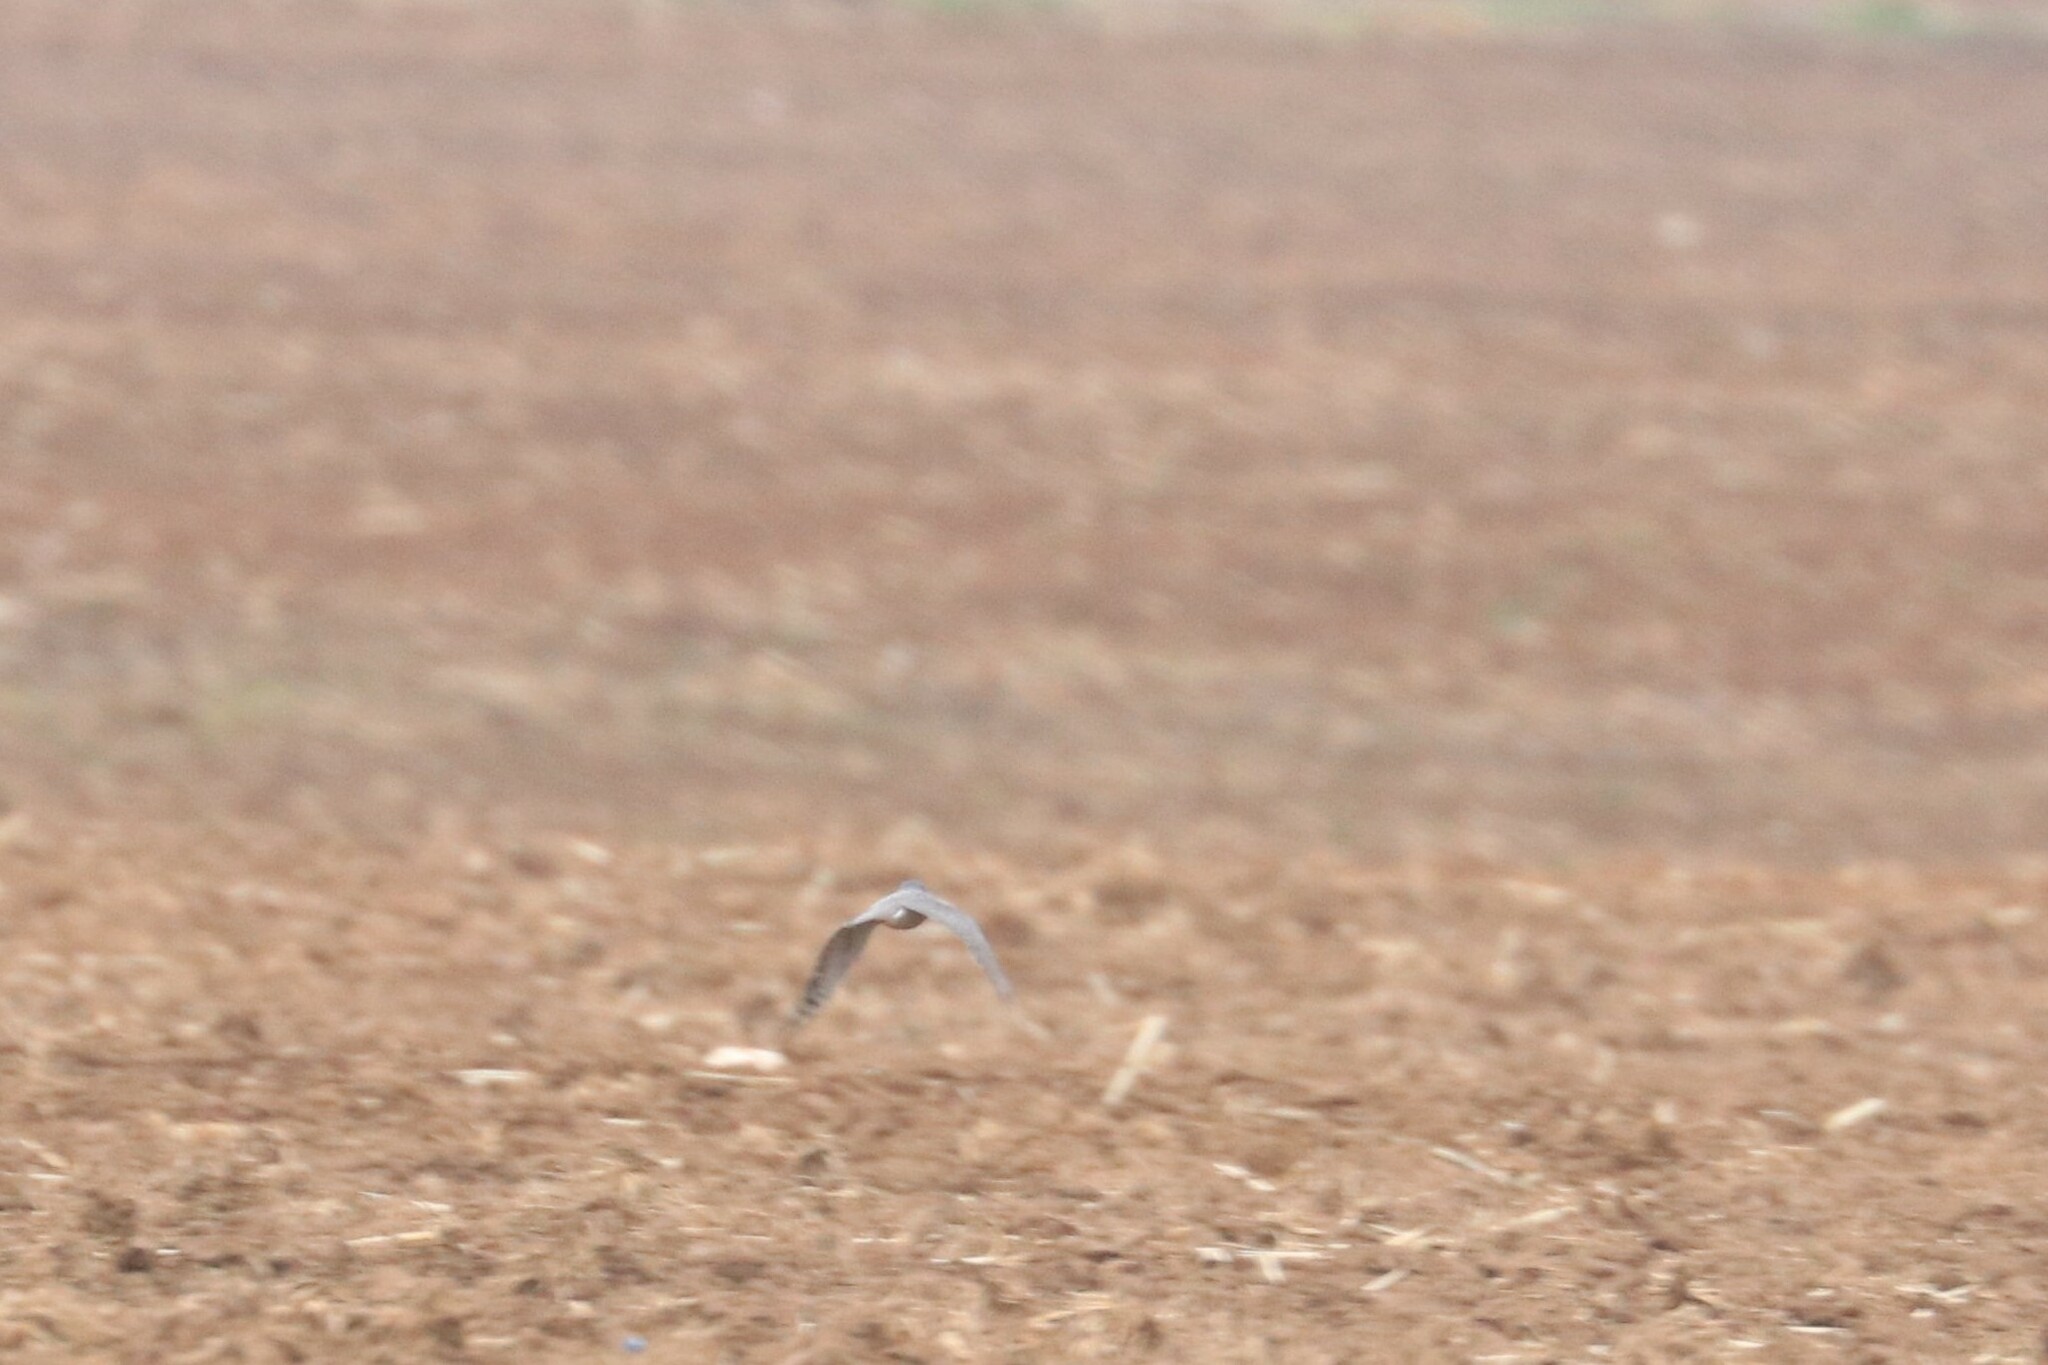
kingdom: Animalia
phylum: Chordata
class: Aves
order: Accipitriformes
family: Accipitridae
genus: Accipiter
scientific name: Accipiter nisus
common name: Eurasian sparrowhawk
